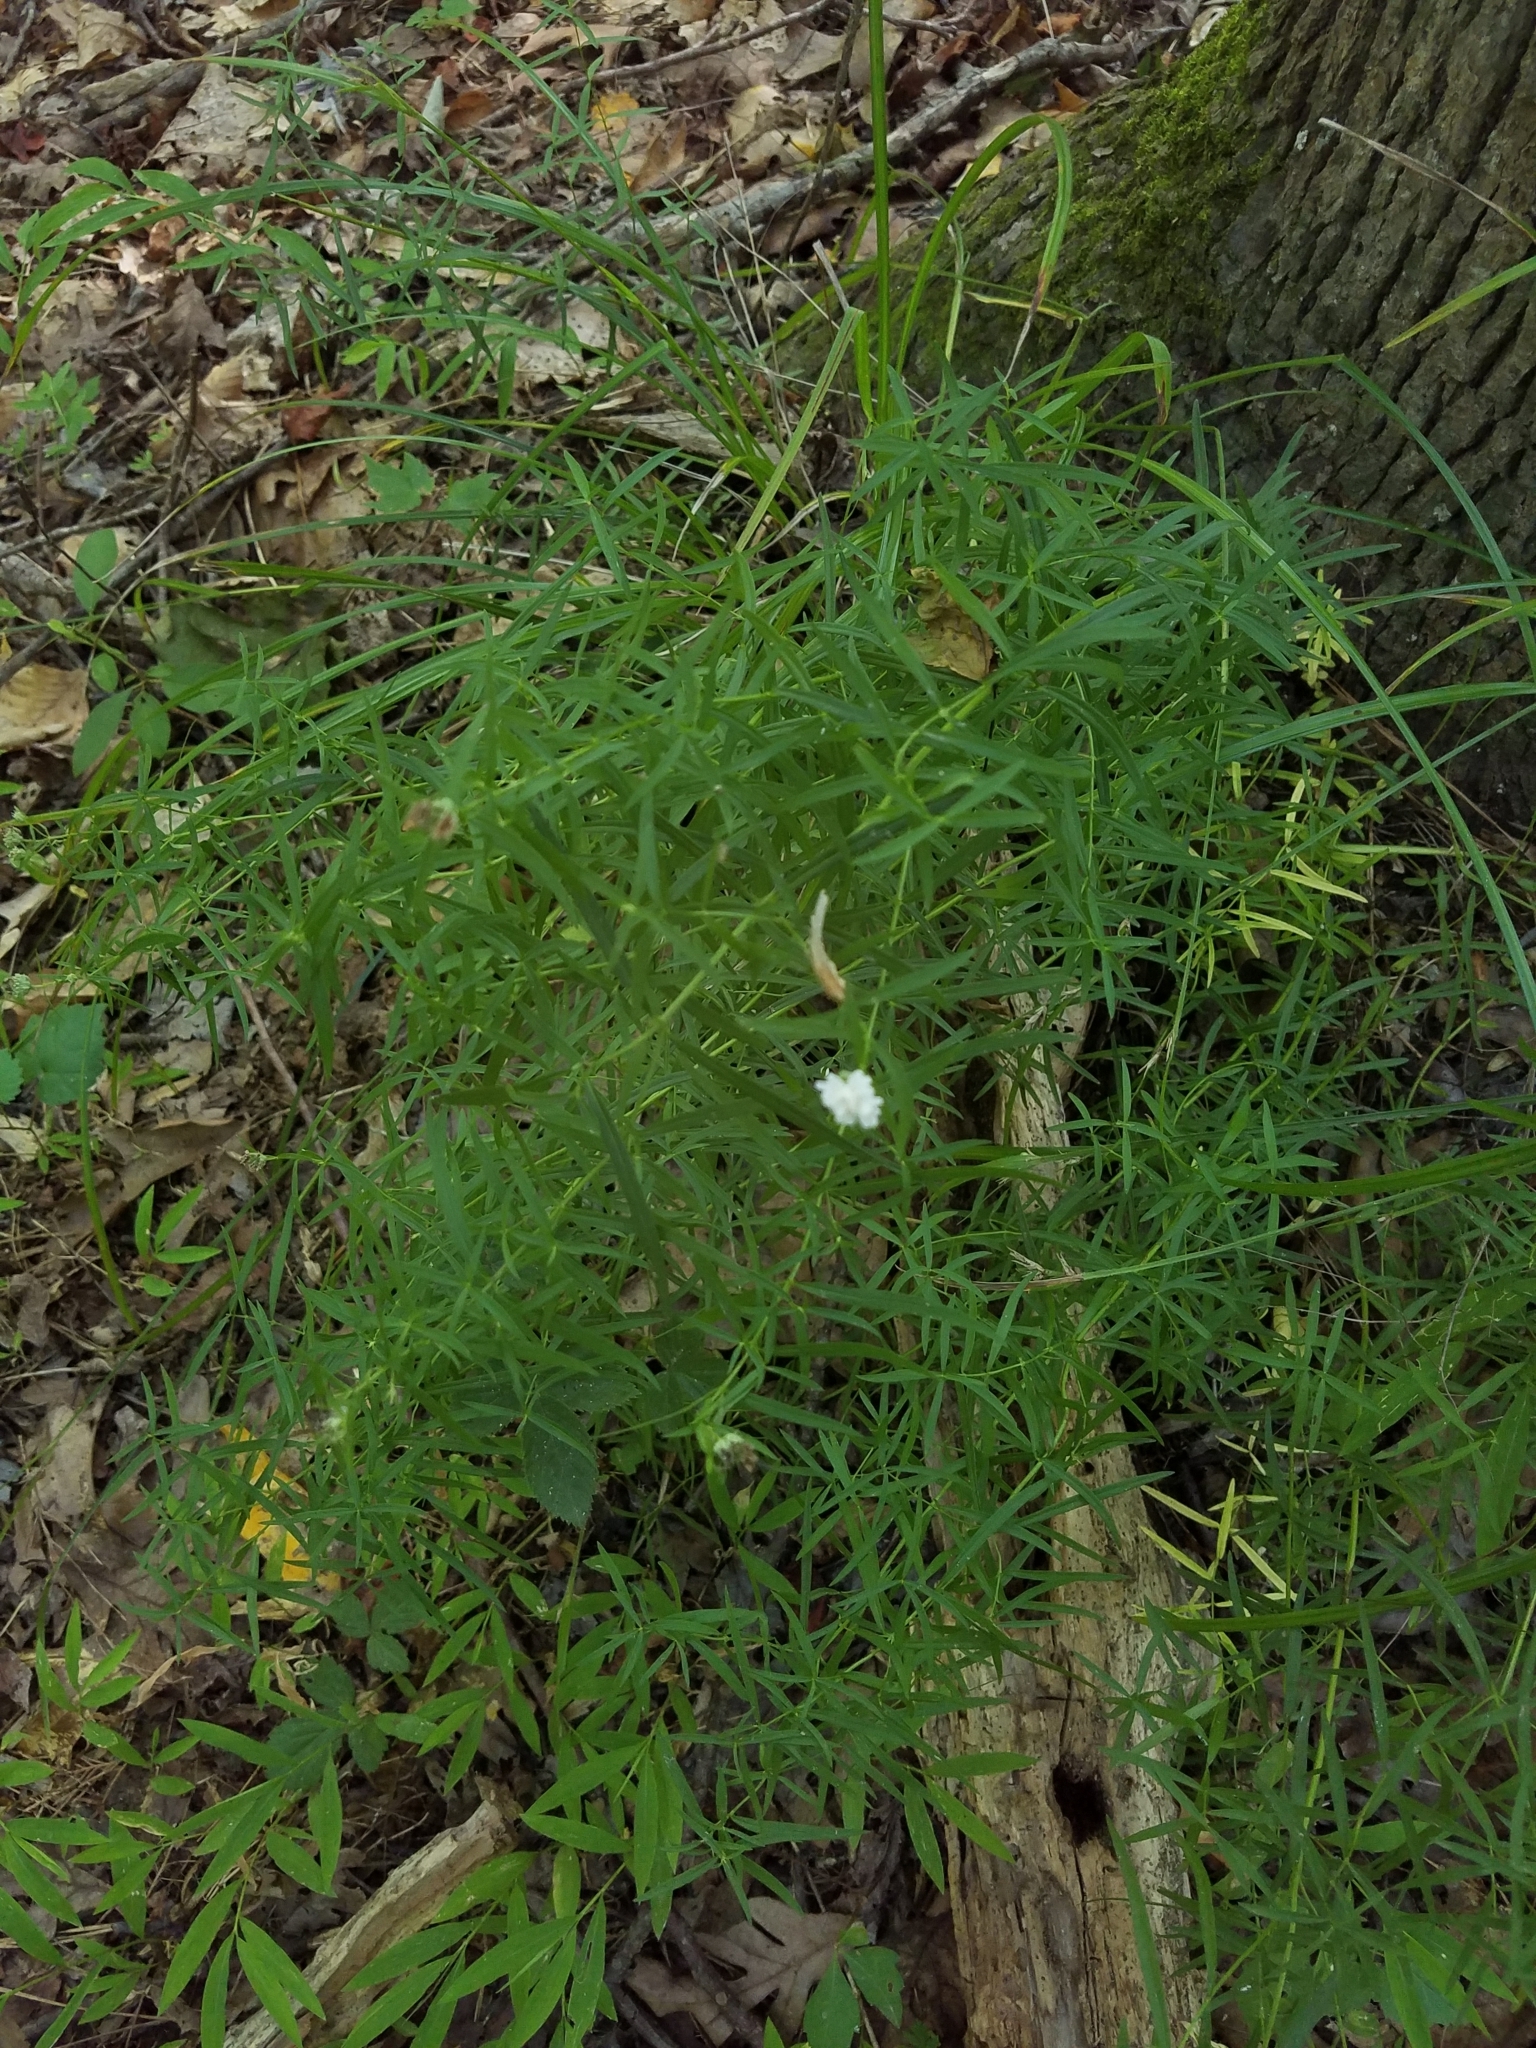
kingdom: Plantae
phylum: Tracheophyta
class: Magnoliopsida
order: Lamiales
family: Lamiaceae
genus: Pycnanthemum
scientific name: Pycnanthemum tenuifolium
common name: Narrow-leaf mountain-mint
